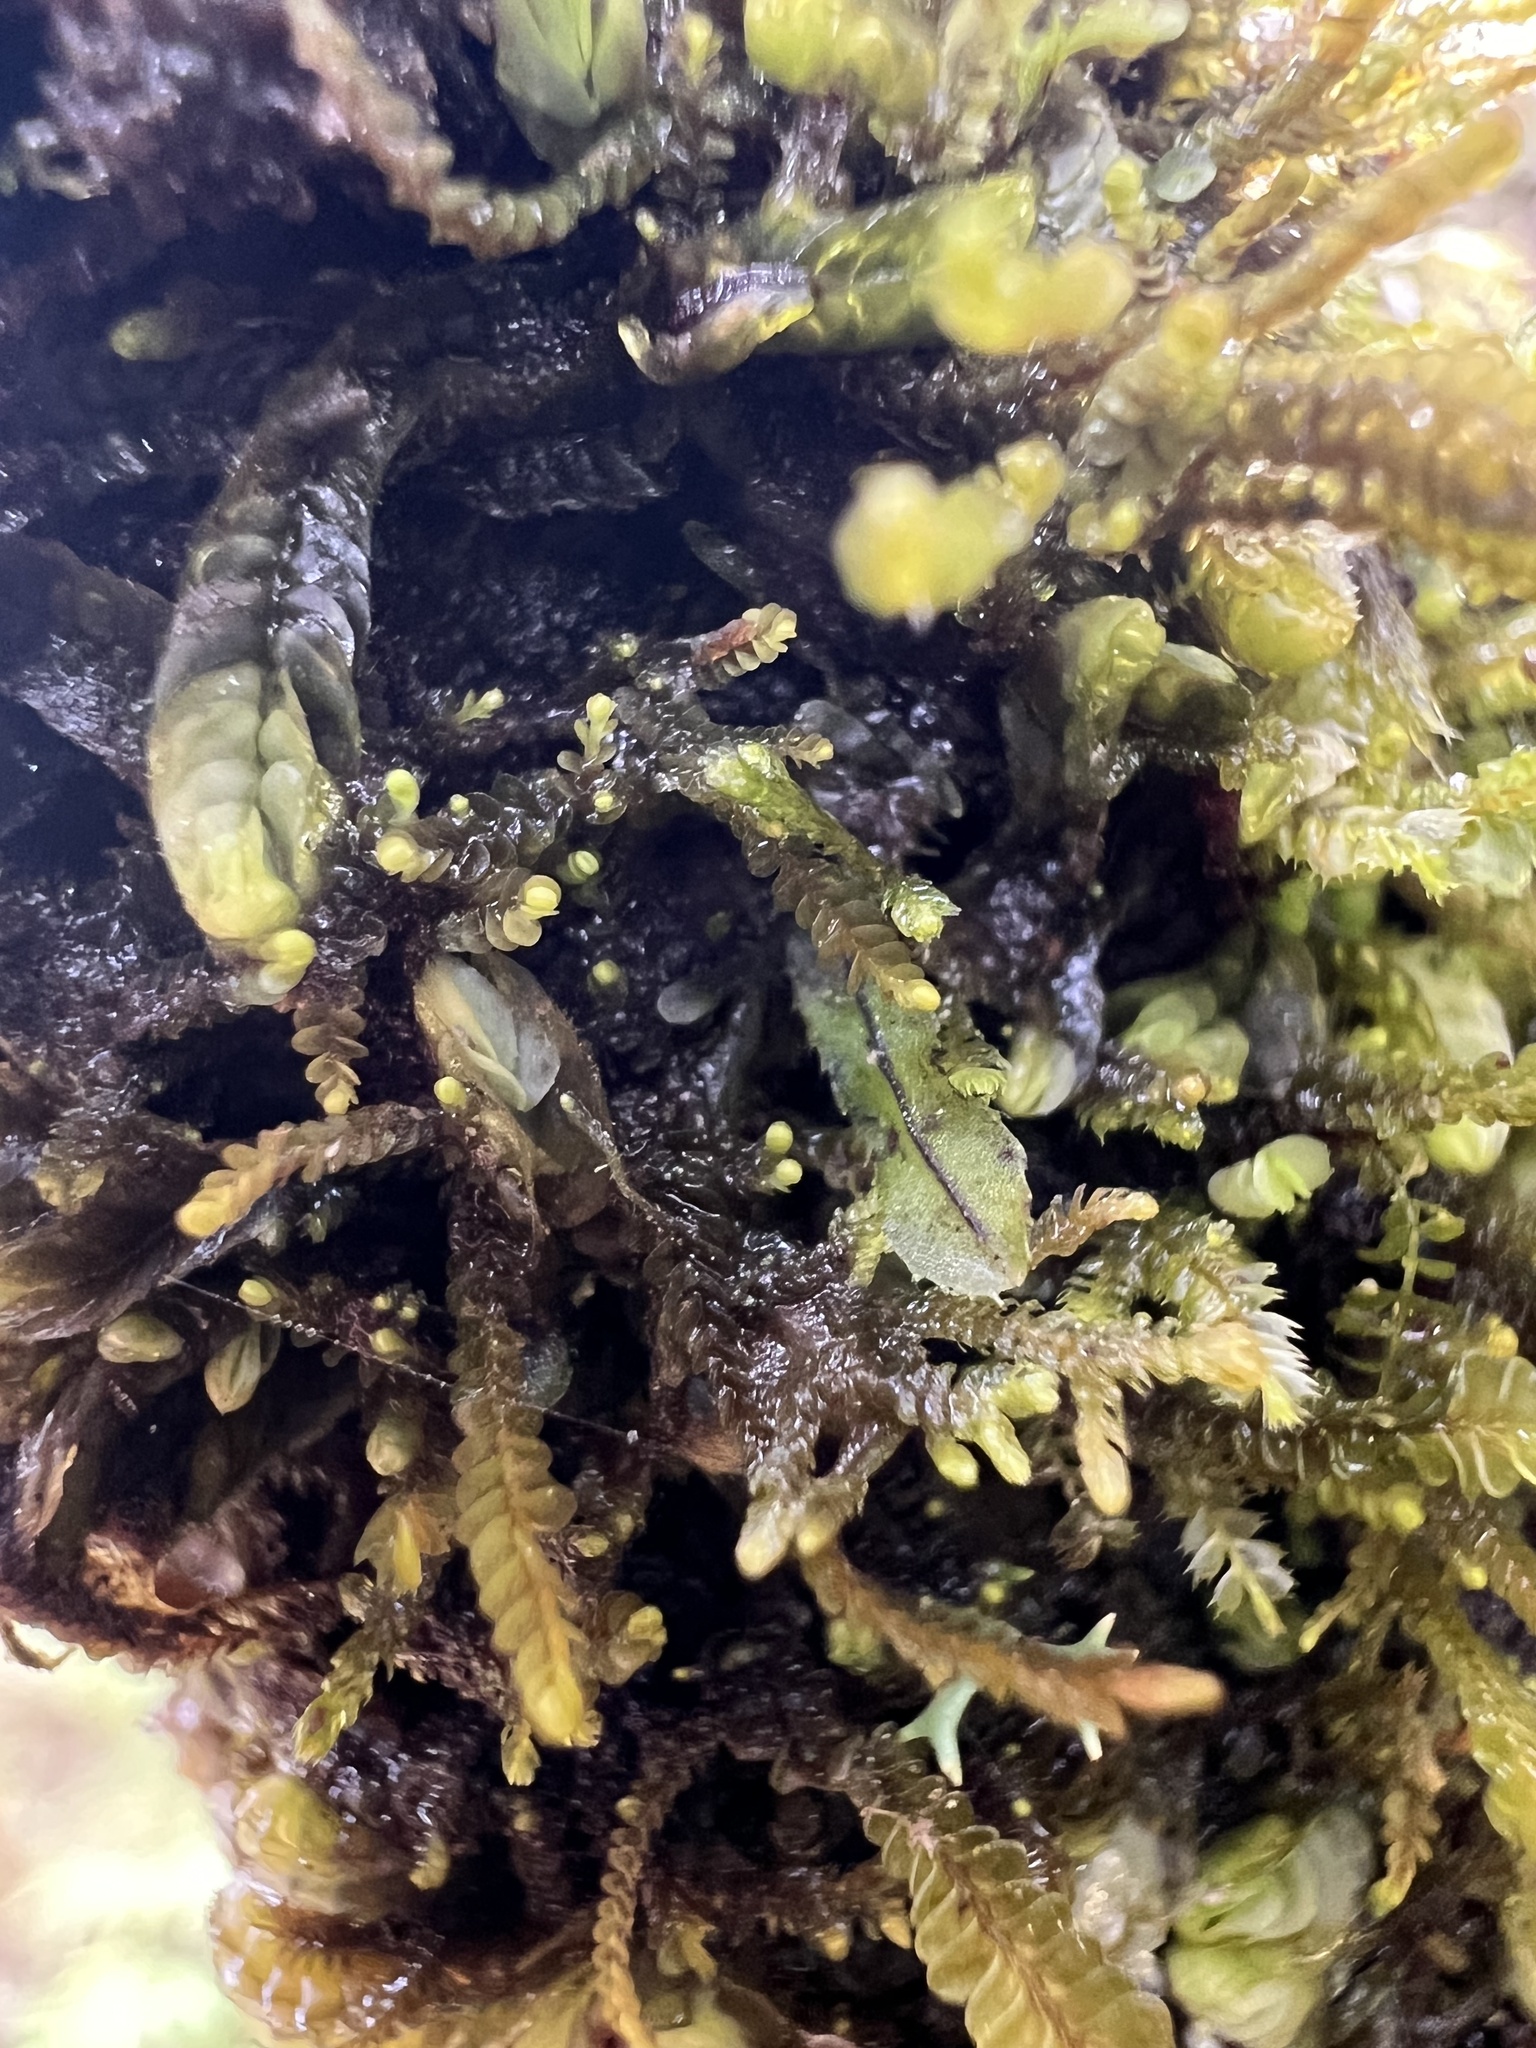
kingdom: Plantae
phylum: Tracheophyta
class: Polypodiopsida
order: Hymenophyllales
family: Hymenophyllaceae
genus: Hymenophyllum
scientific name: Hymenophyllum armstrongii
